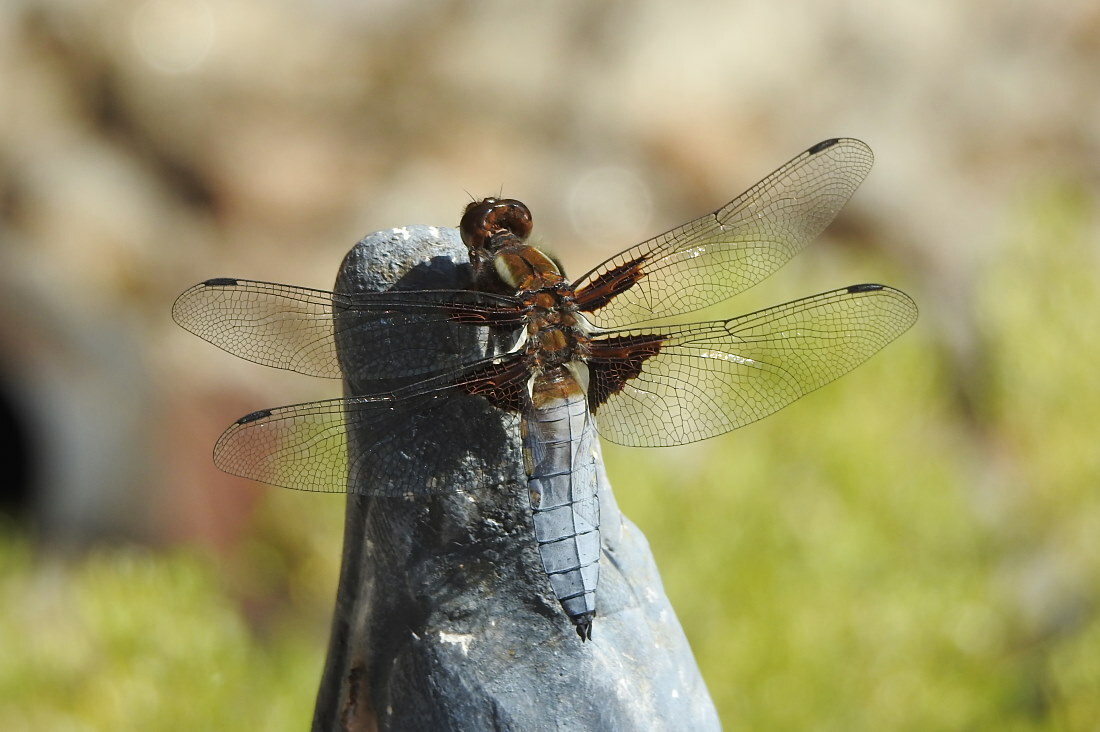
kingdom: Animalia
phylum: Arthropoda
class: Insecta
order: Odonata
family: Libellulidae
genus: Libellula
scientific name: Libellula depressa
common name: Broad-bodied chaser
